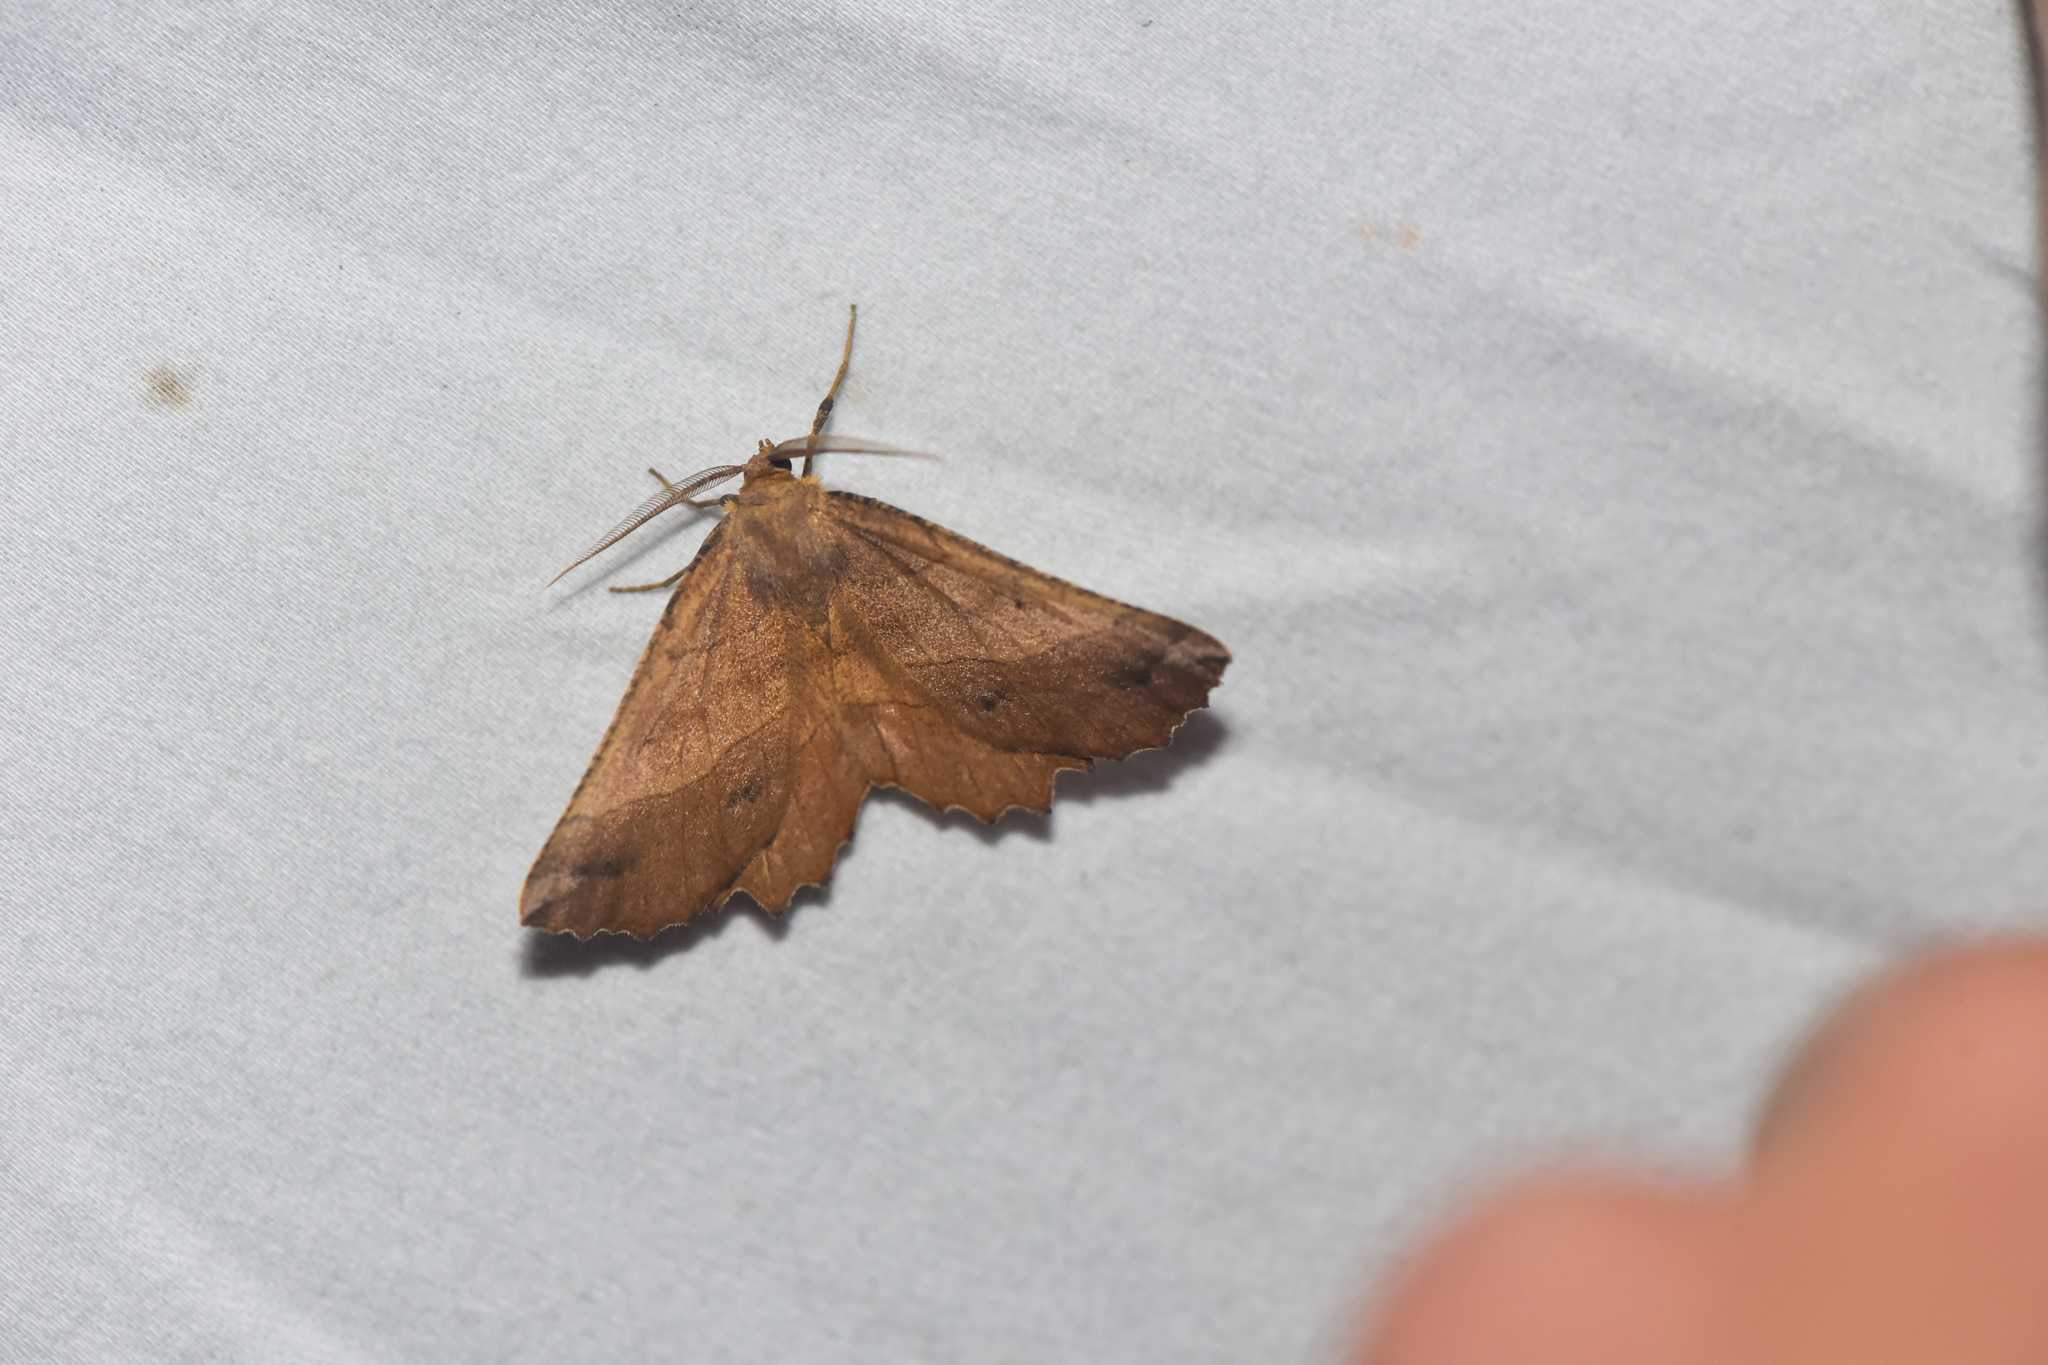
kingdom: Animalia
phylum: Arthropoda
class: Insecta
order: Lepidoptera
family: Geometridae
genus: Euchlaena
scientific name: Euchlaena johnsonaria
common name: Johnson's euchlaena
